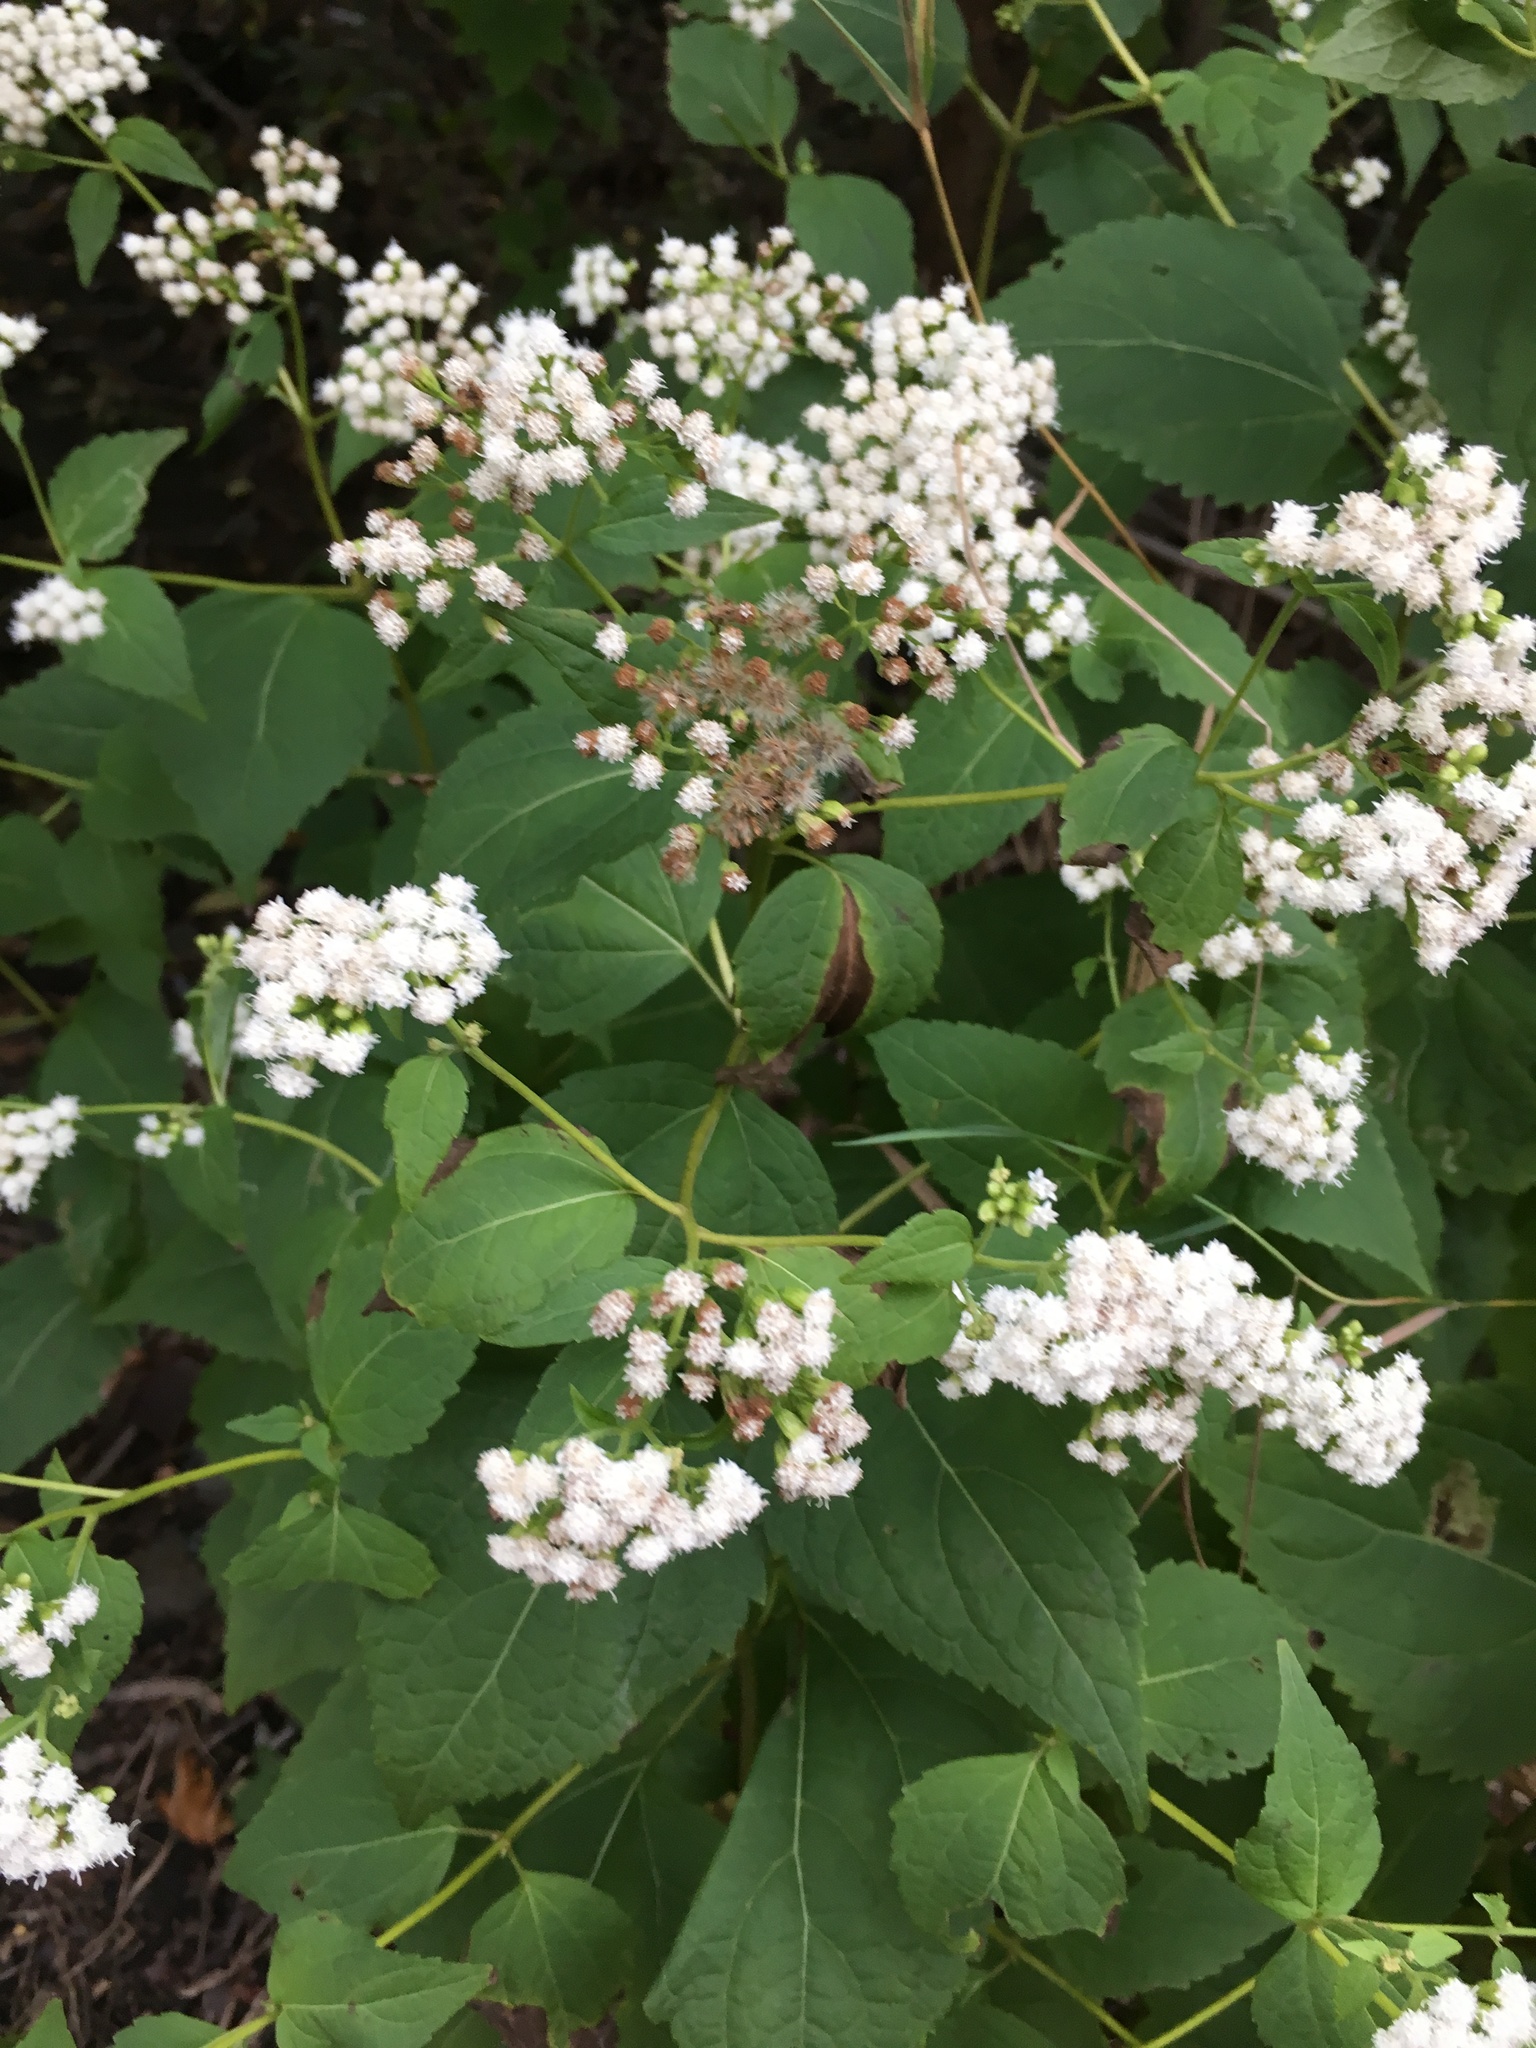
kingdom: Plantae
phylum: Tracheophyta
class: Magnoliopsida
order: Asterales
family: Asteraceae
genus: Ageratina
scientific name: Ageratina altissima
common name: White snakeroot
